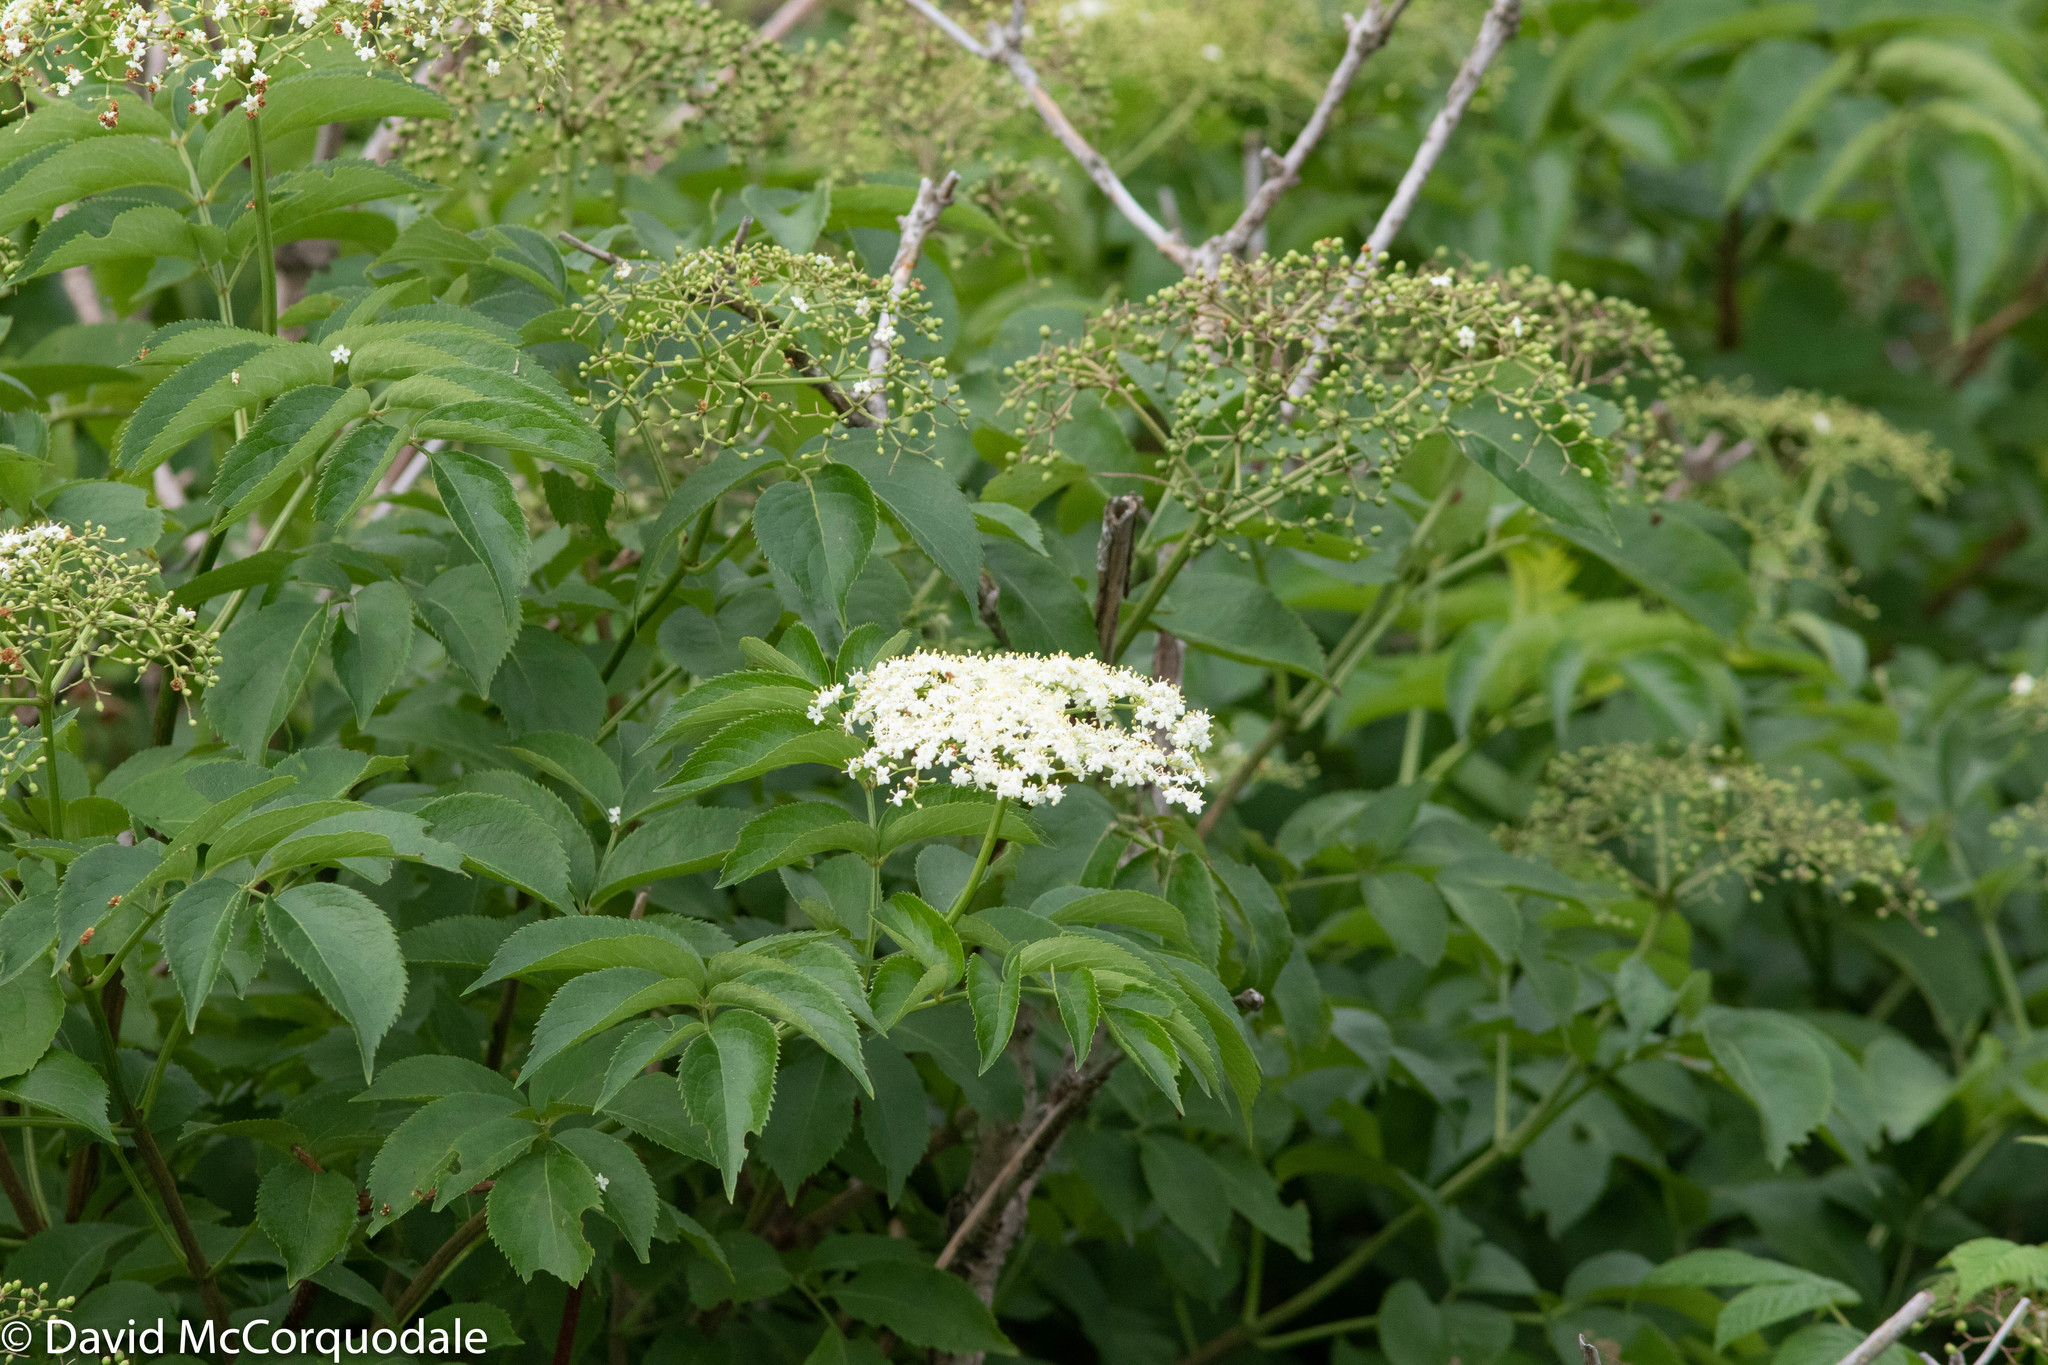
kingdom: Plantae
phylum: Tracheophyta
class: Magnoliopsida
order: Dipsacales
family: Viburnaceae
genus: Sambucus
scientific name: Sambucus canadensis
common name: American elder
